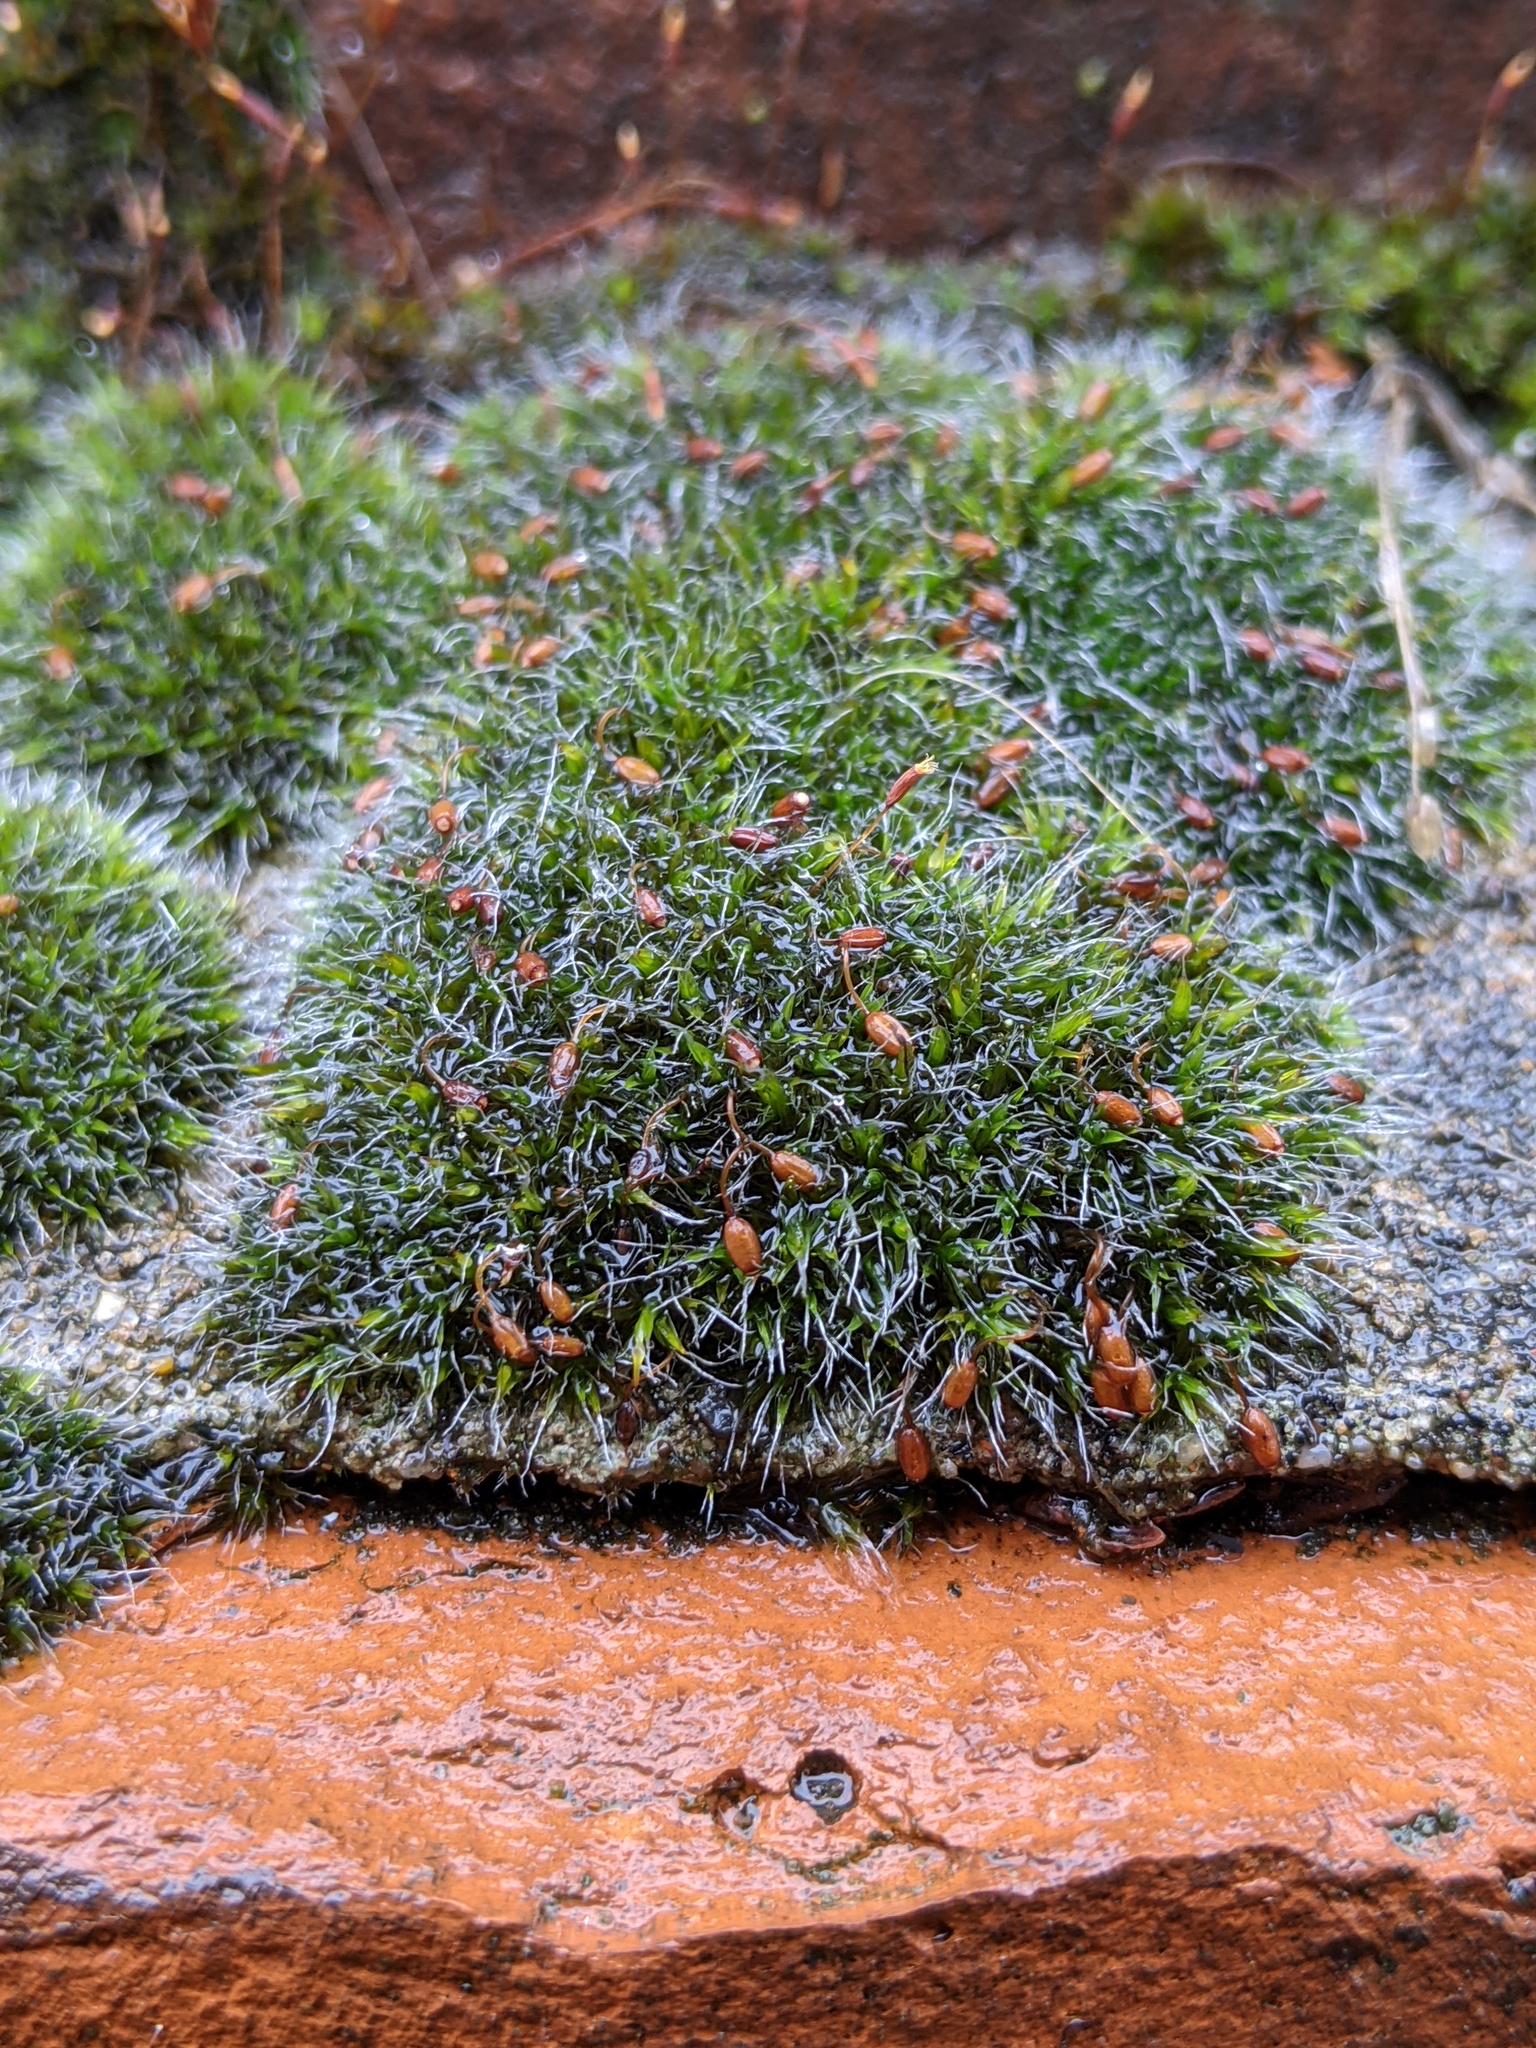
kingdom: Plantae
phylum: Bryophyta
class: Bryopsida
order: Grimmiales
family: Grimmiaceae
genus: Grimmia
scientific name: Grimmia pulvinata
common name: Grey-cushioned grimmia
